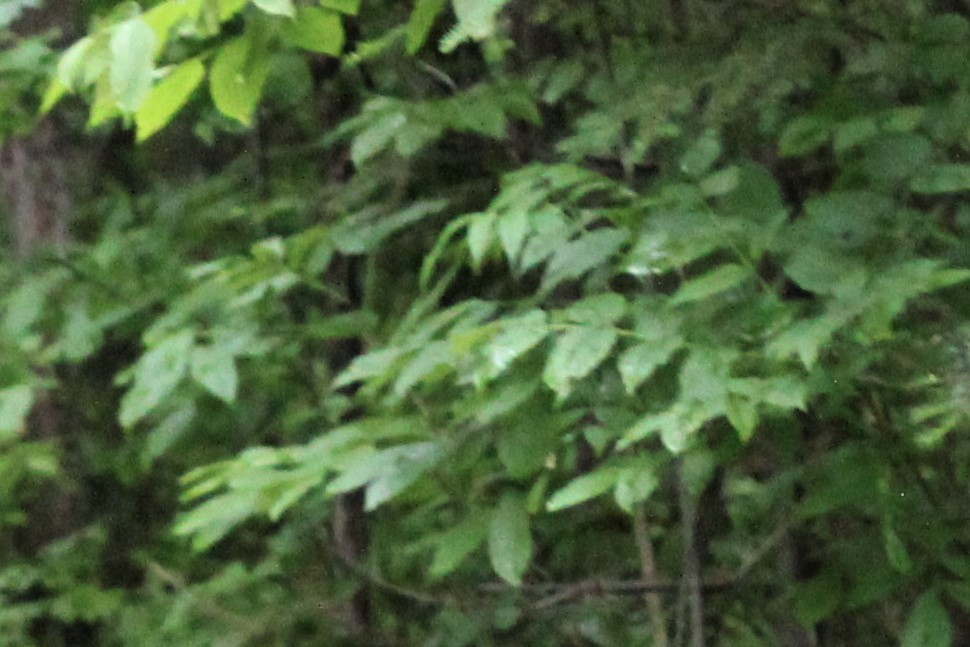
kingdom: Plantae
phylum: Tracheophyta
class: Magnoliopsida
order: Lamiales
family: Oleaceae
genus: Fraxinus
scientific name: Fraxinus nigra
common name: Black ash
